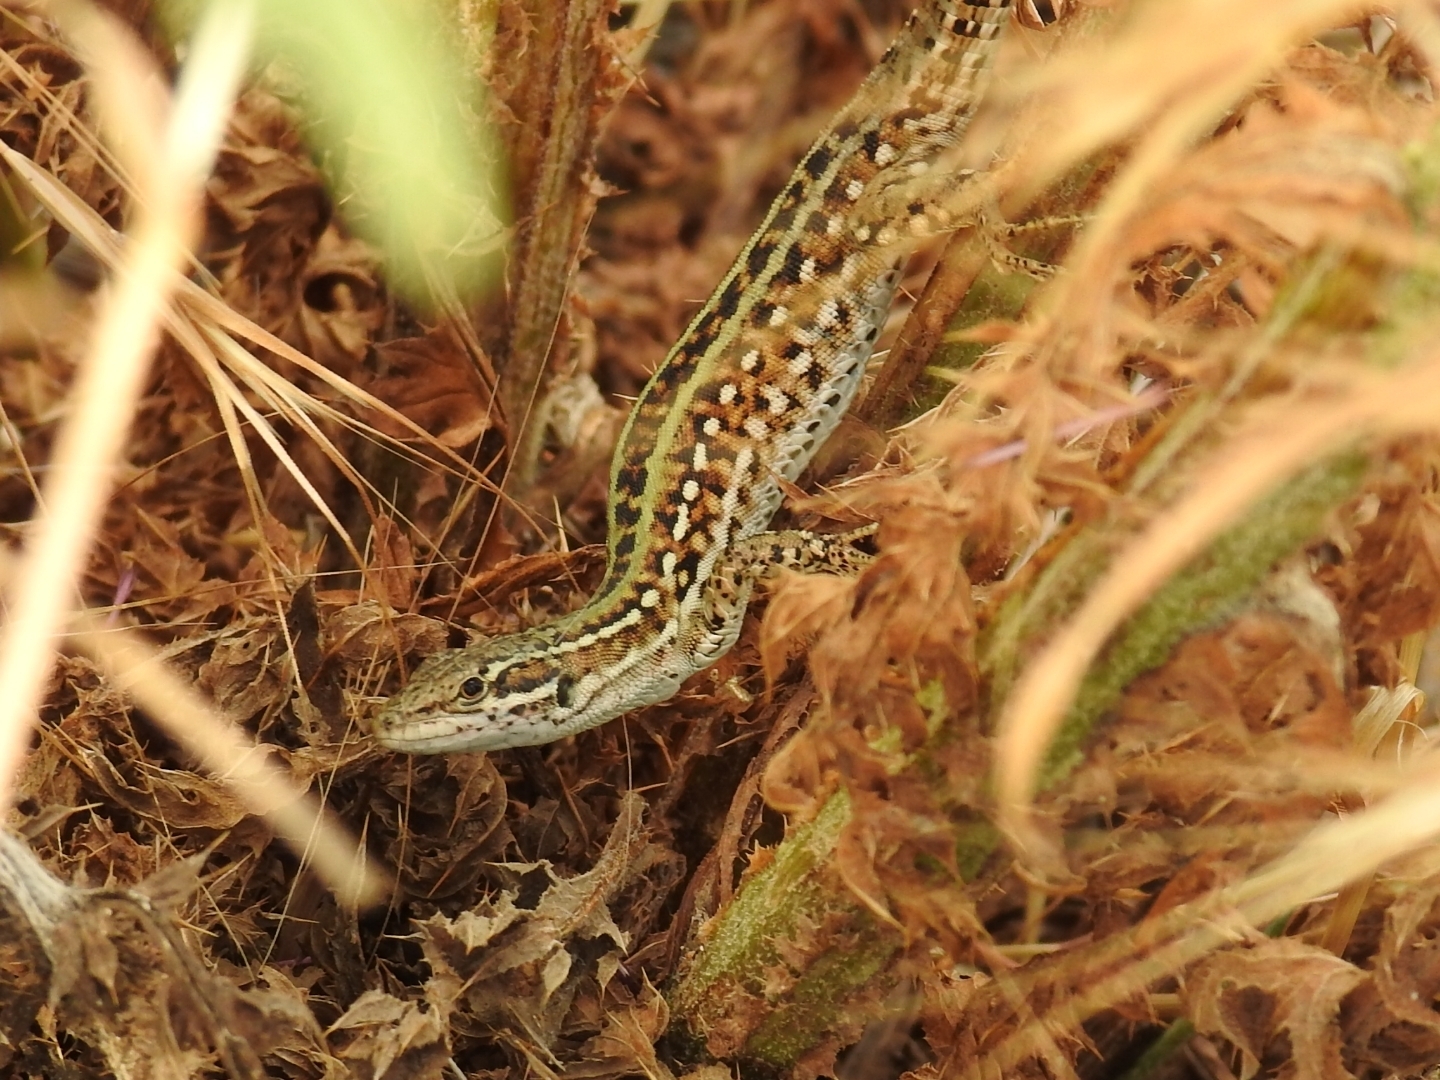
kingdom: Animalia
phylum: Chordata
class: Squamata
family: Lacertidae
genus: Podarcis
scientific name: Podarcis siculus
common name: Italian wall lizard
